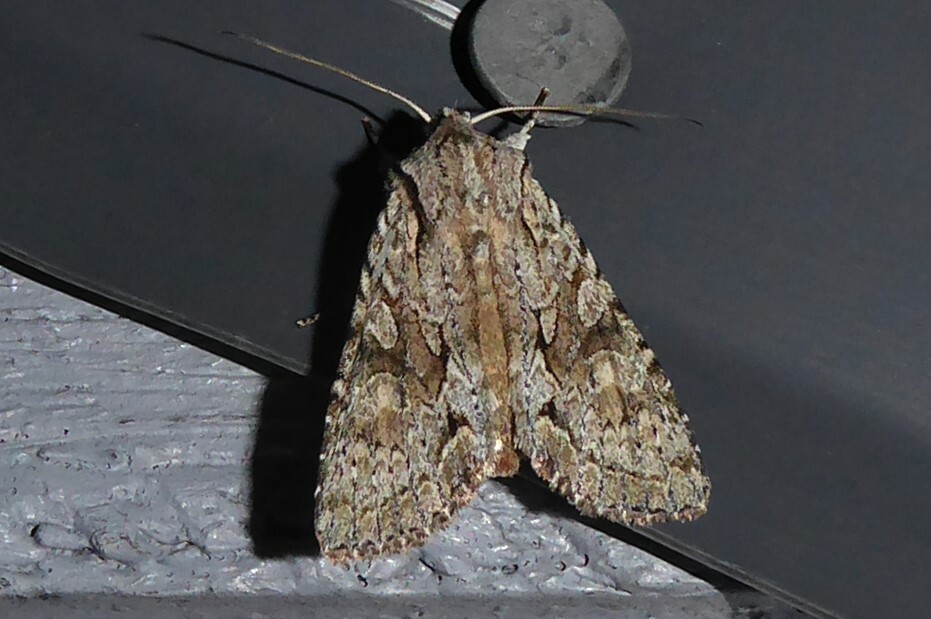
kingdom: Animalia
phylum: Arthropoda
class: Insecta
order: Lepidoptera
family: Noctuidae
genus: Ichneutica
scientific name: Ichneutica mutans
